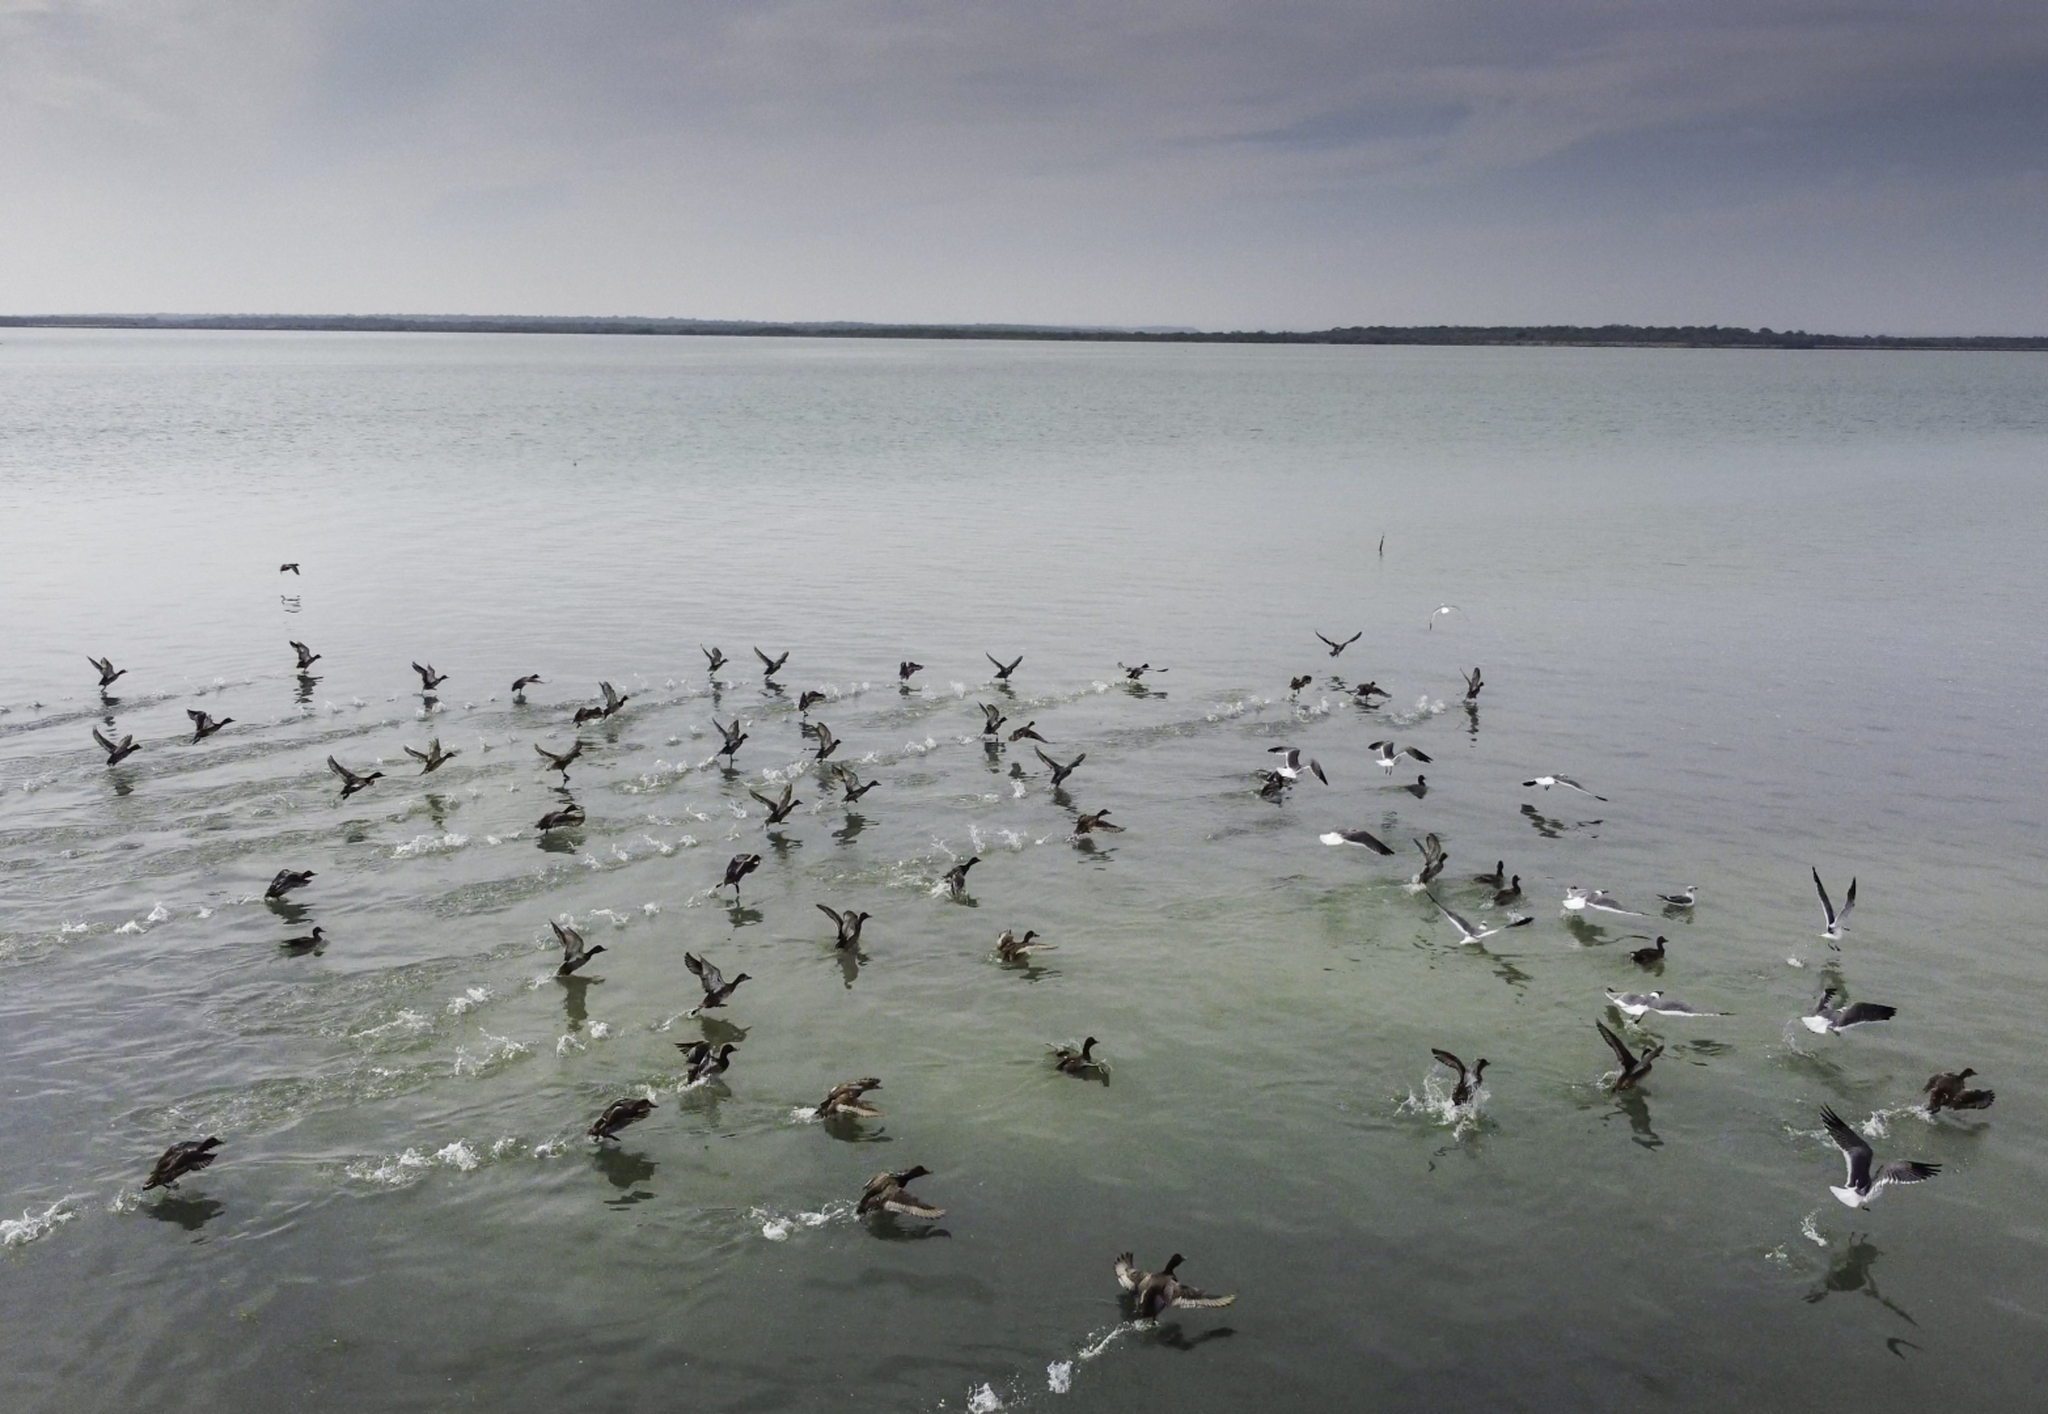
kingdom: Animalia
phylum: Chordata
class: Aves
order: Anseriformes
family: Anatidae
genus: Aythya
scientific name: Aythya americana
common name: Redhead
